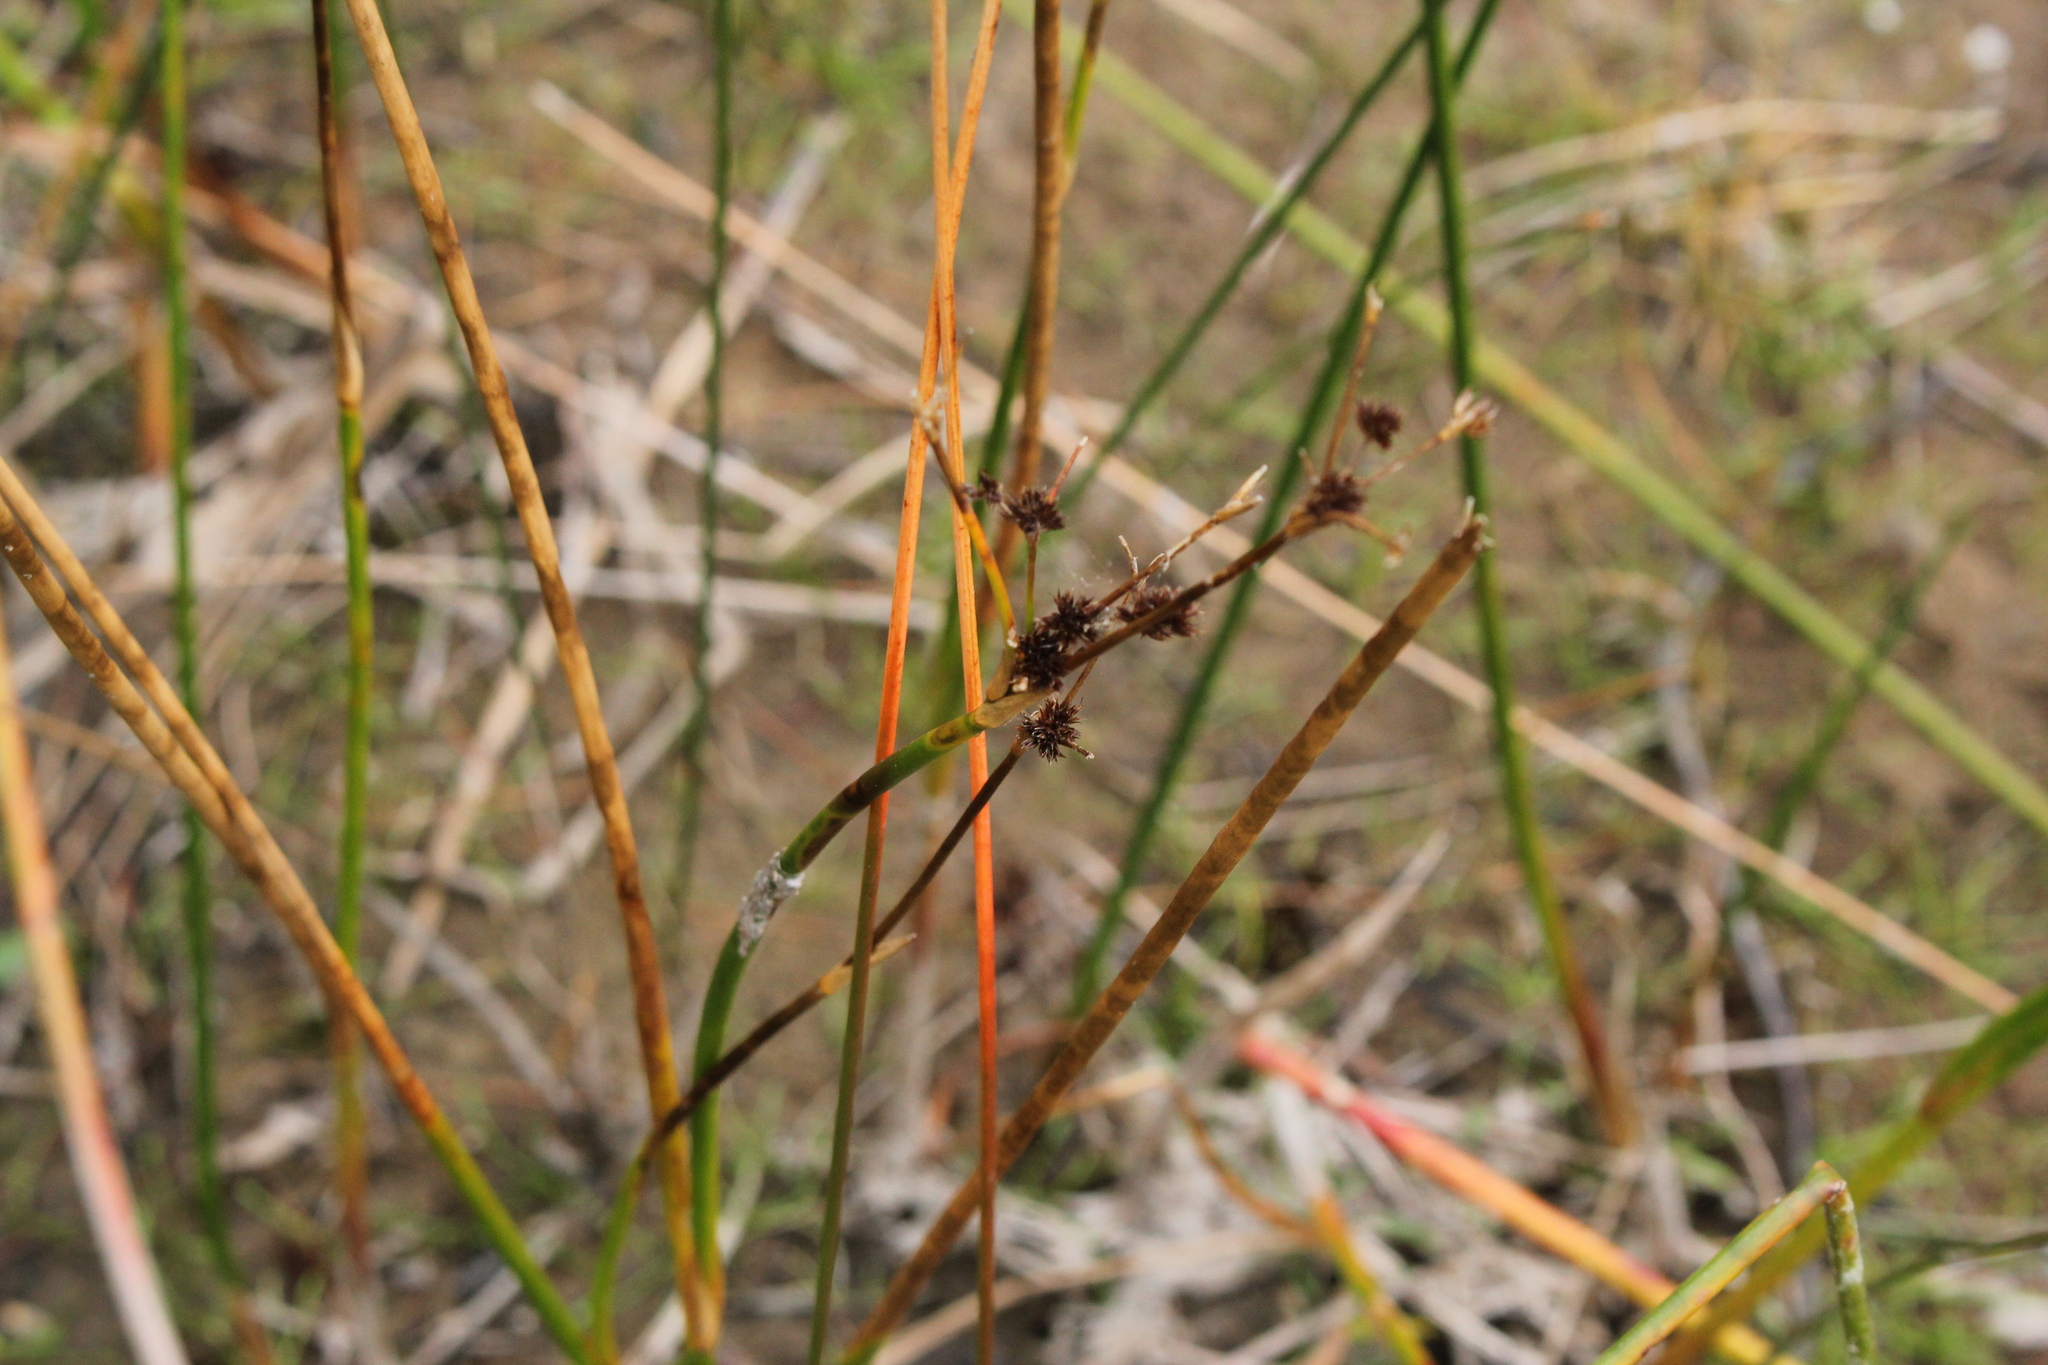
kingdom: Plantae
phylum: Tracheophyta
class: Liliopsida
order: Poales
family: Juncaceae
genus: Juncus
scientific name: Juncus militaris
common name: Bayonet rush
